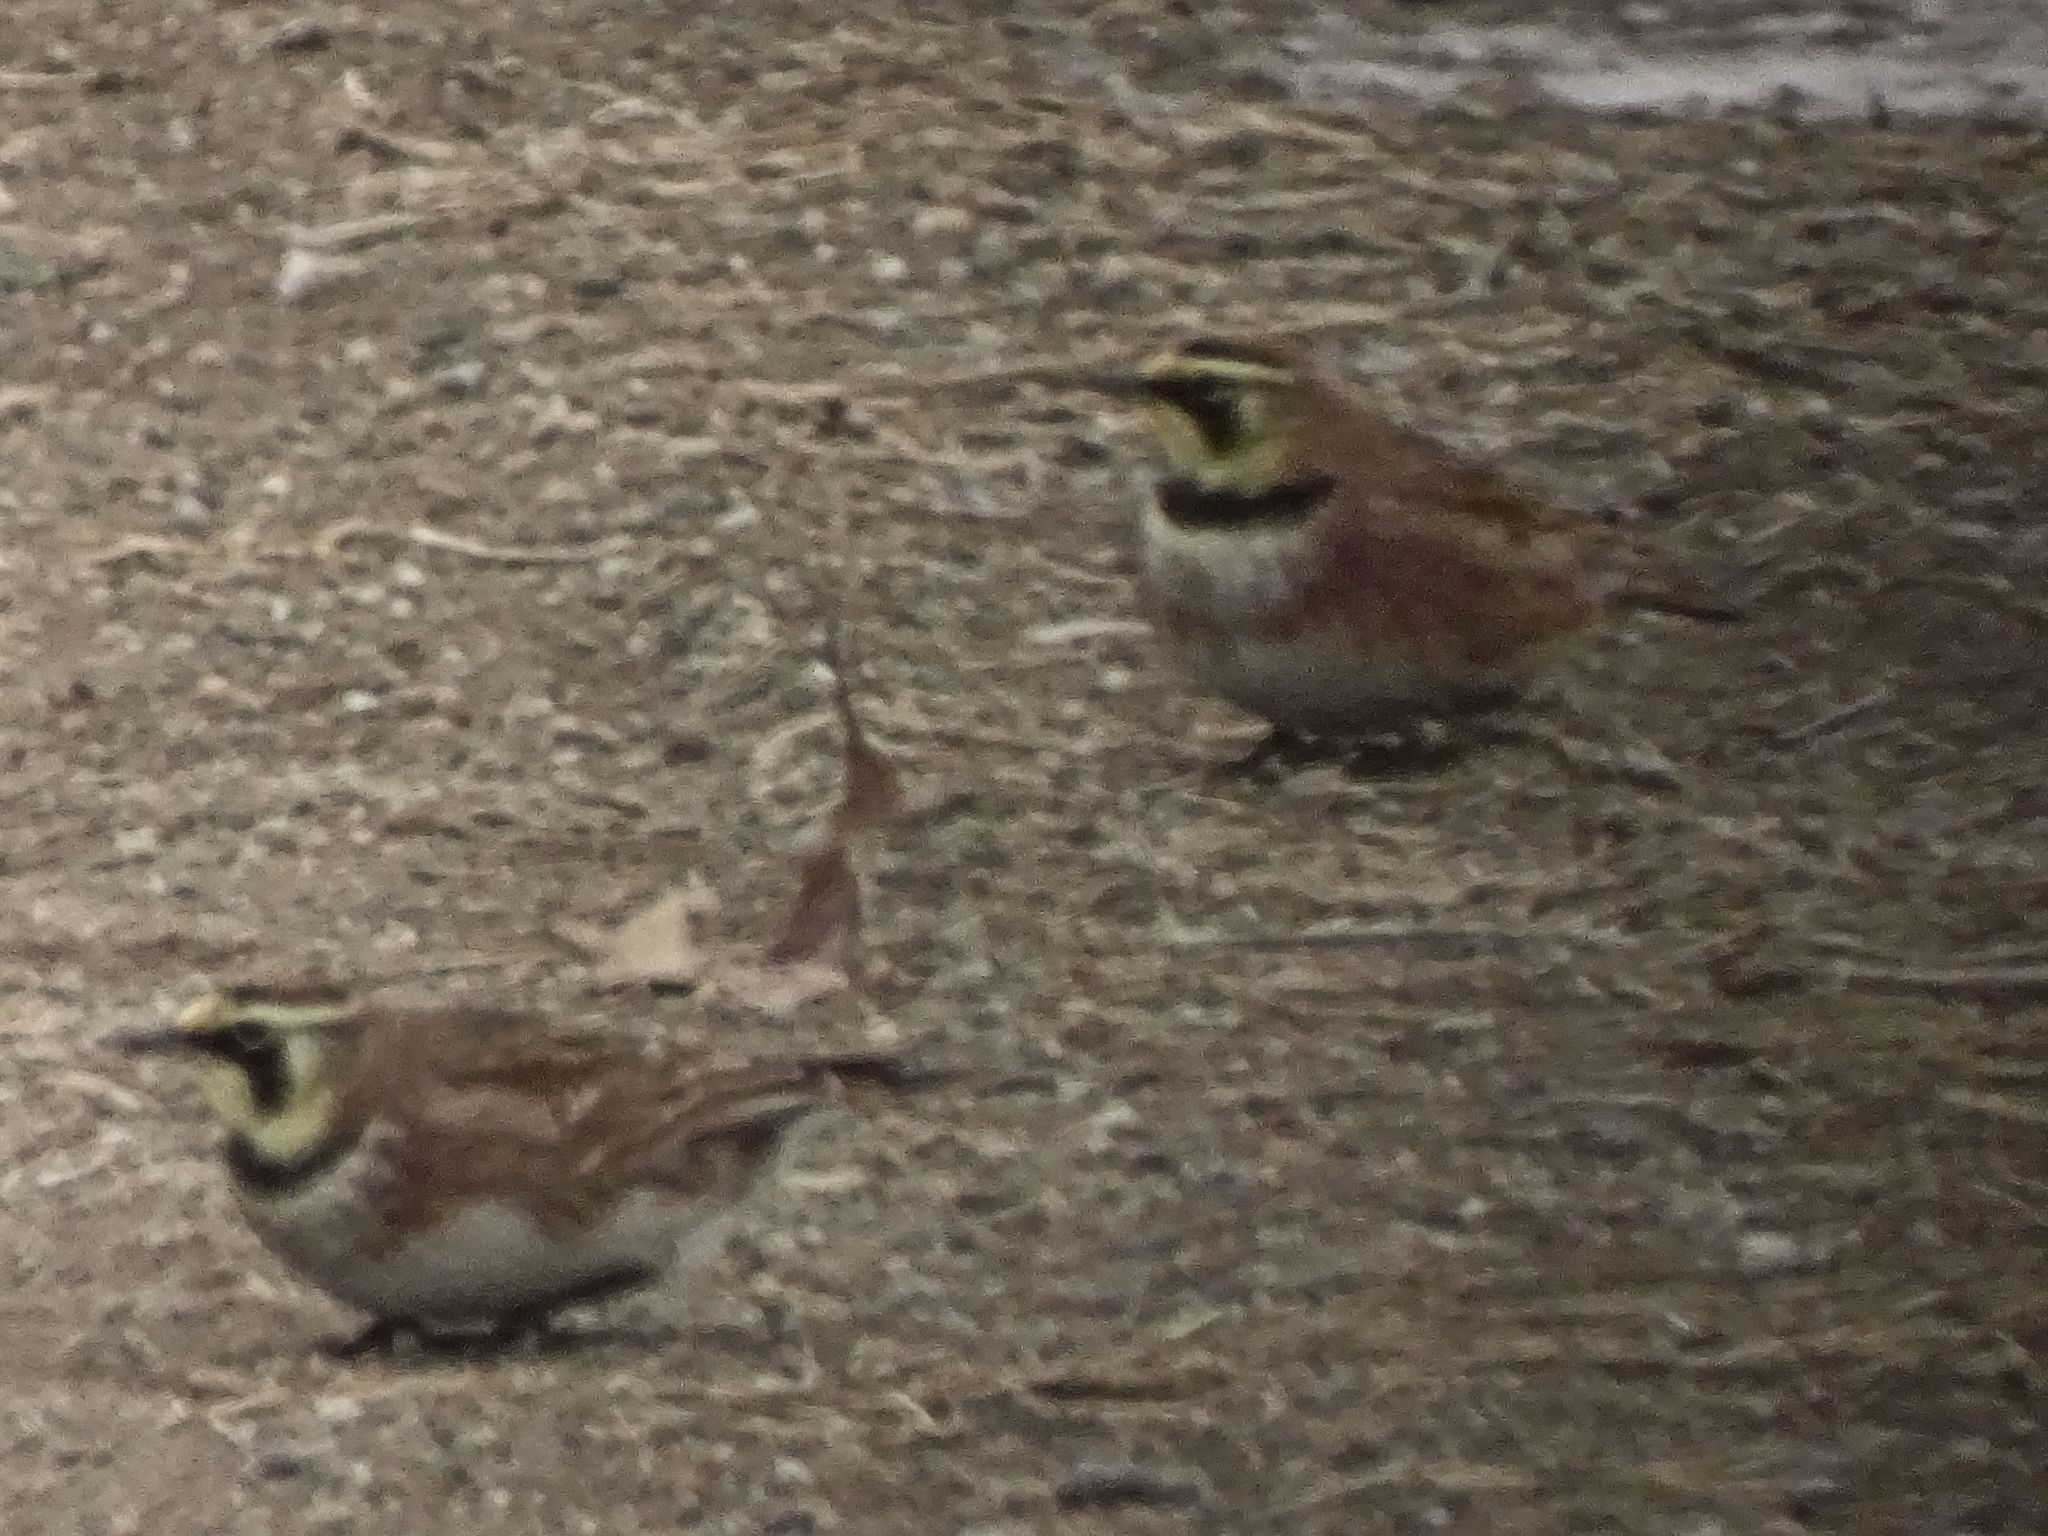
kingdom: Animalia
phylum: Chordata
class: Aves
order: Passeriformes
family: Alaudidae
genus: Eremophila
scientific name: Eremophila alpestris
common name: Horned lark
